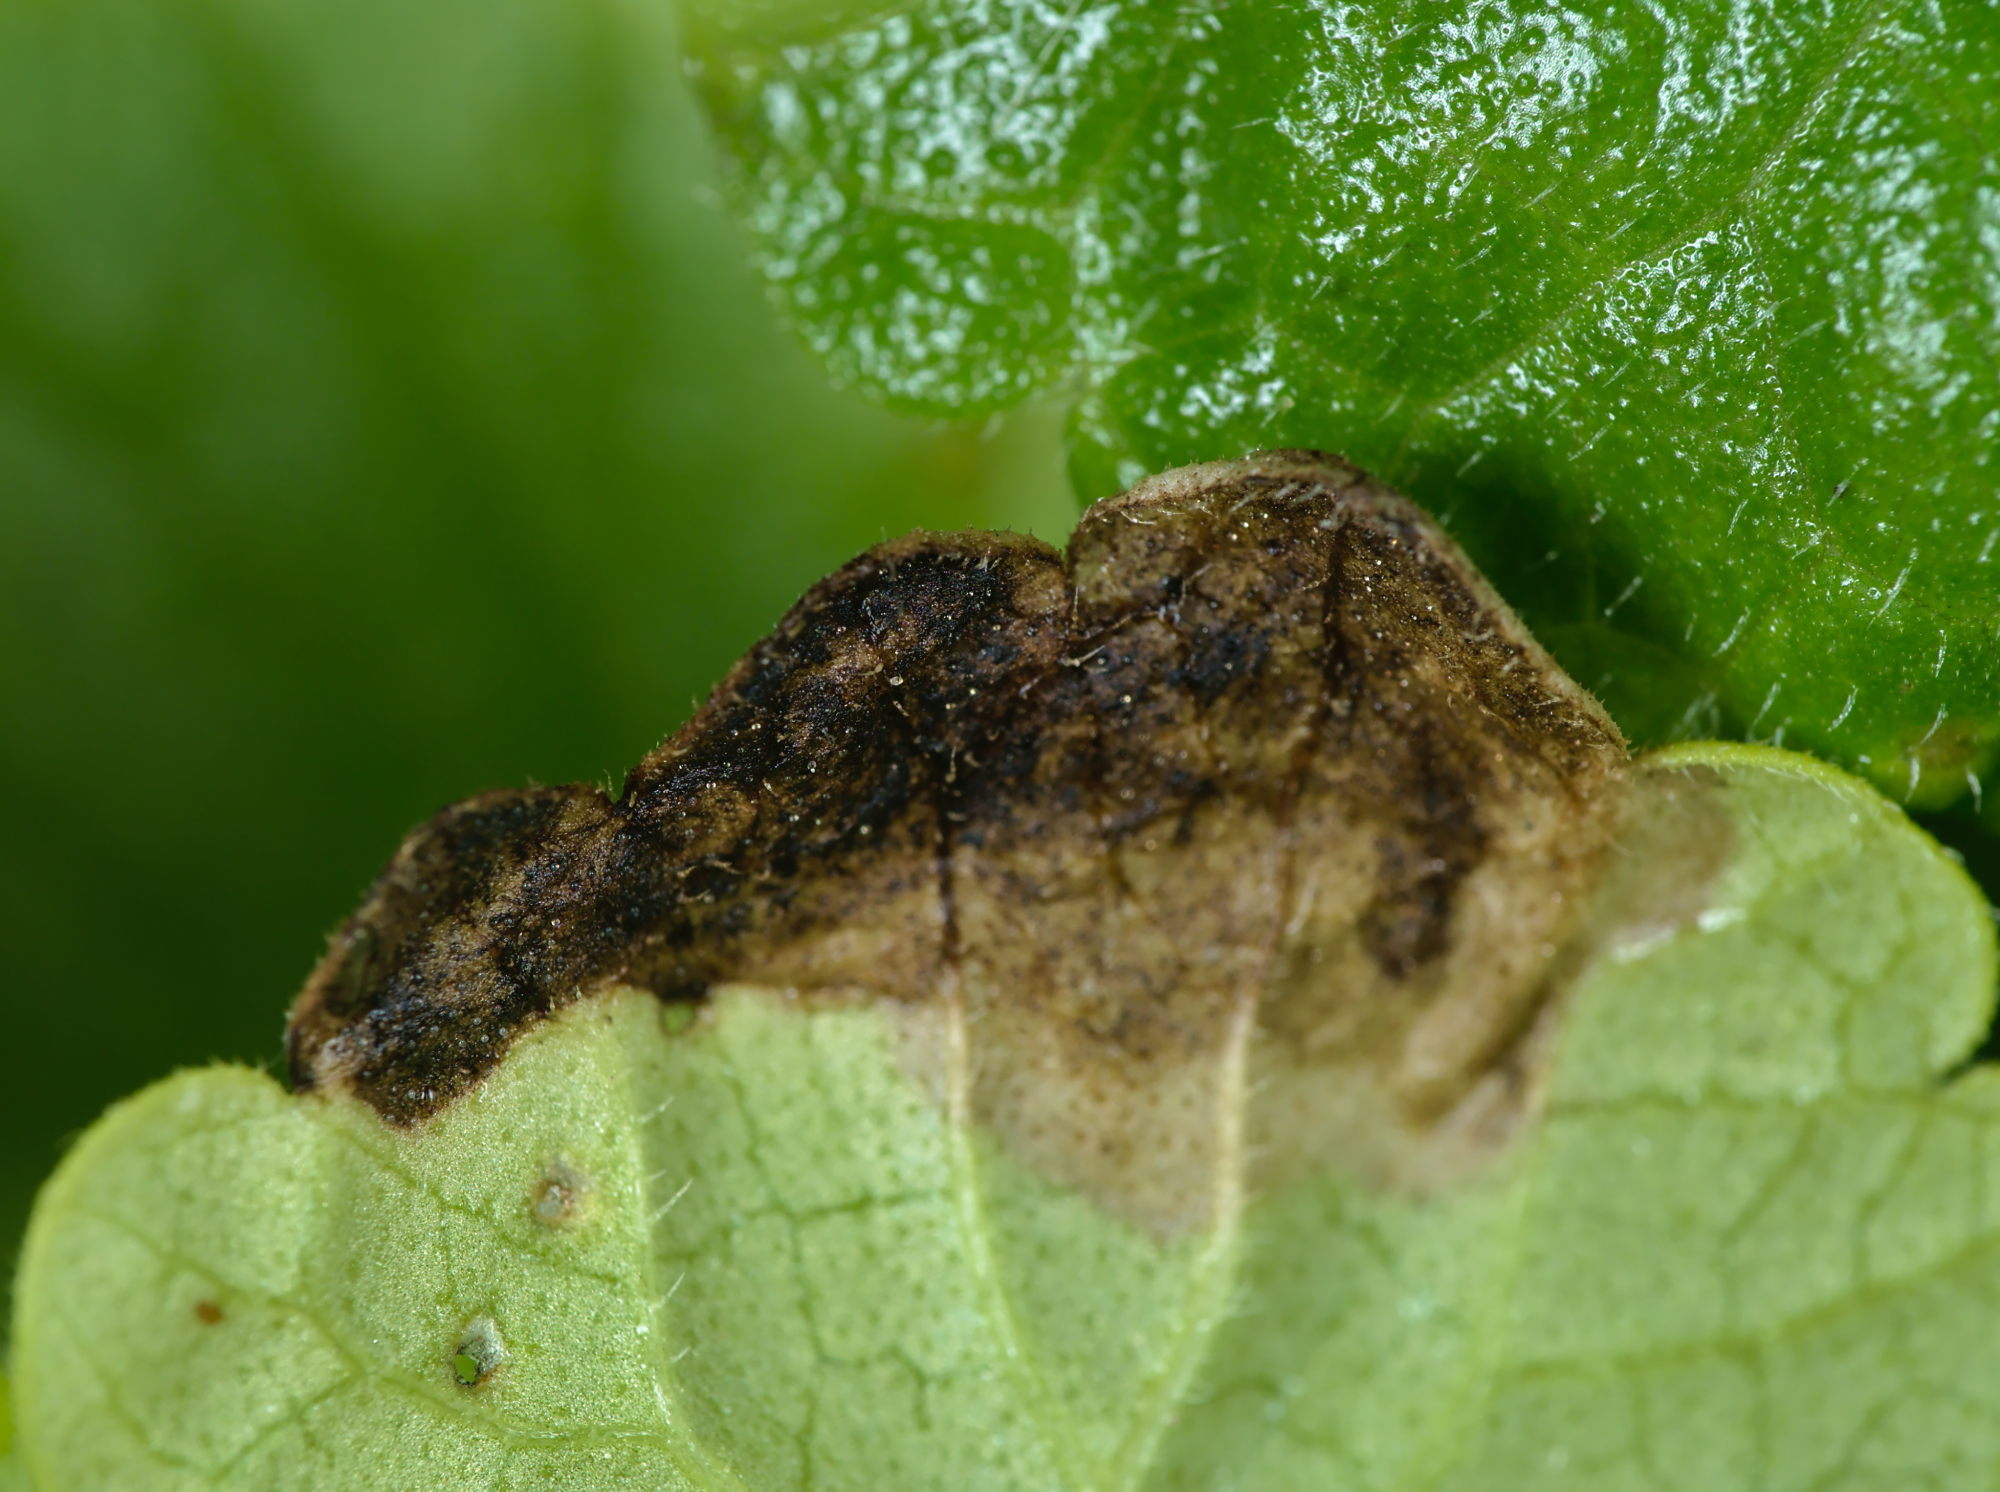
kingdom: Animalia
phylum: Arthropoda
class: Insecta
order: Coleoptera
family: Buprestidae
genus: Trachys
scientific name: Trachys scrobiculatus
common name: Ground-ivy jewel beetle
